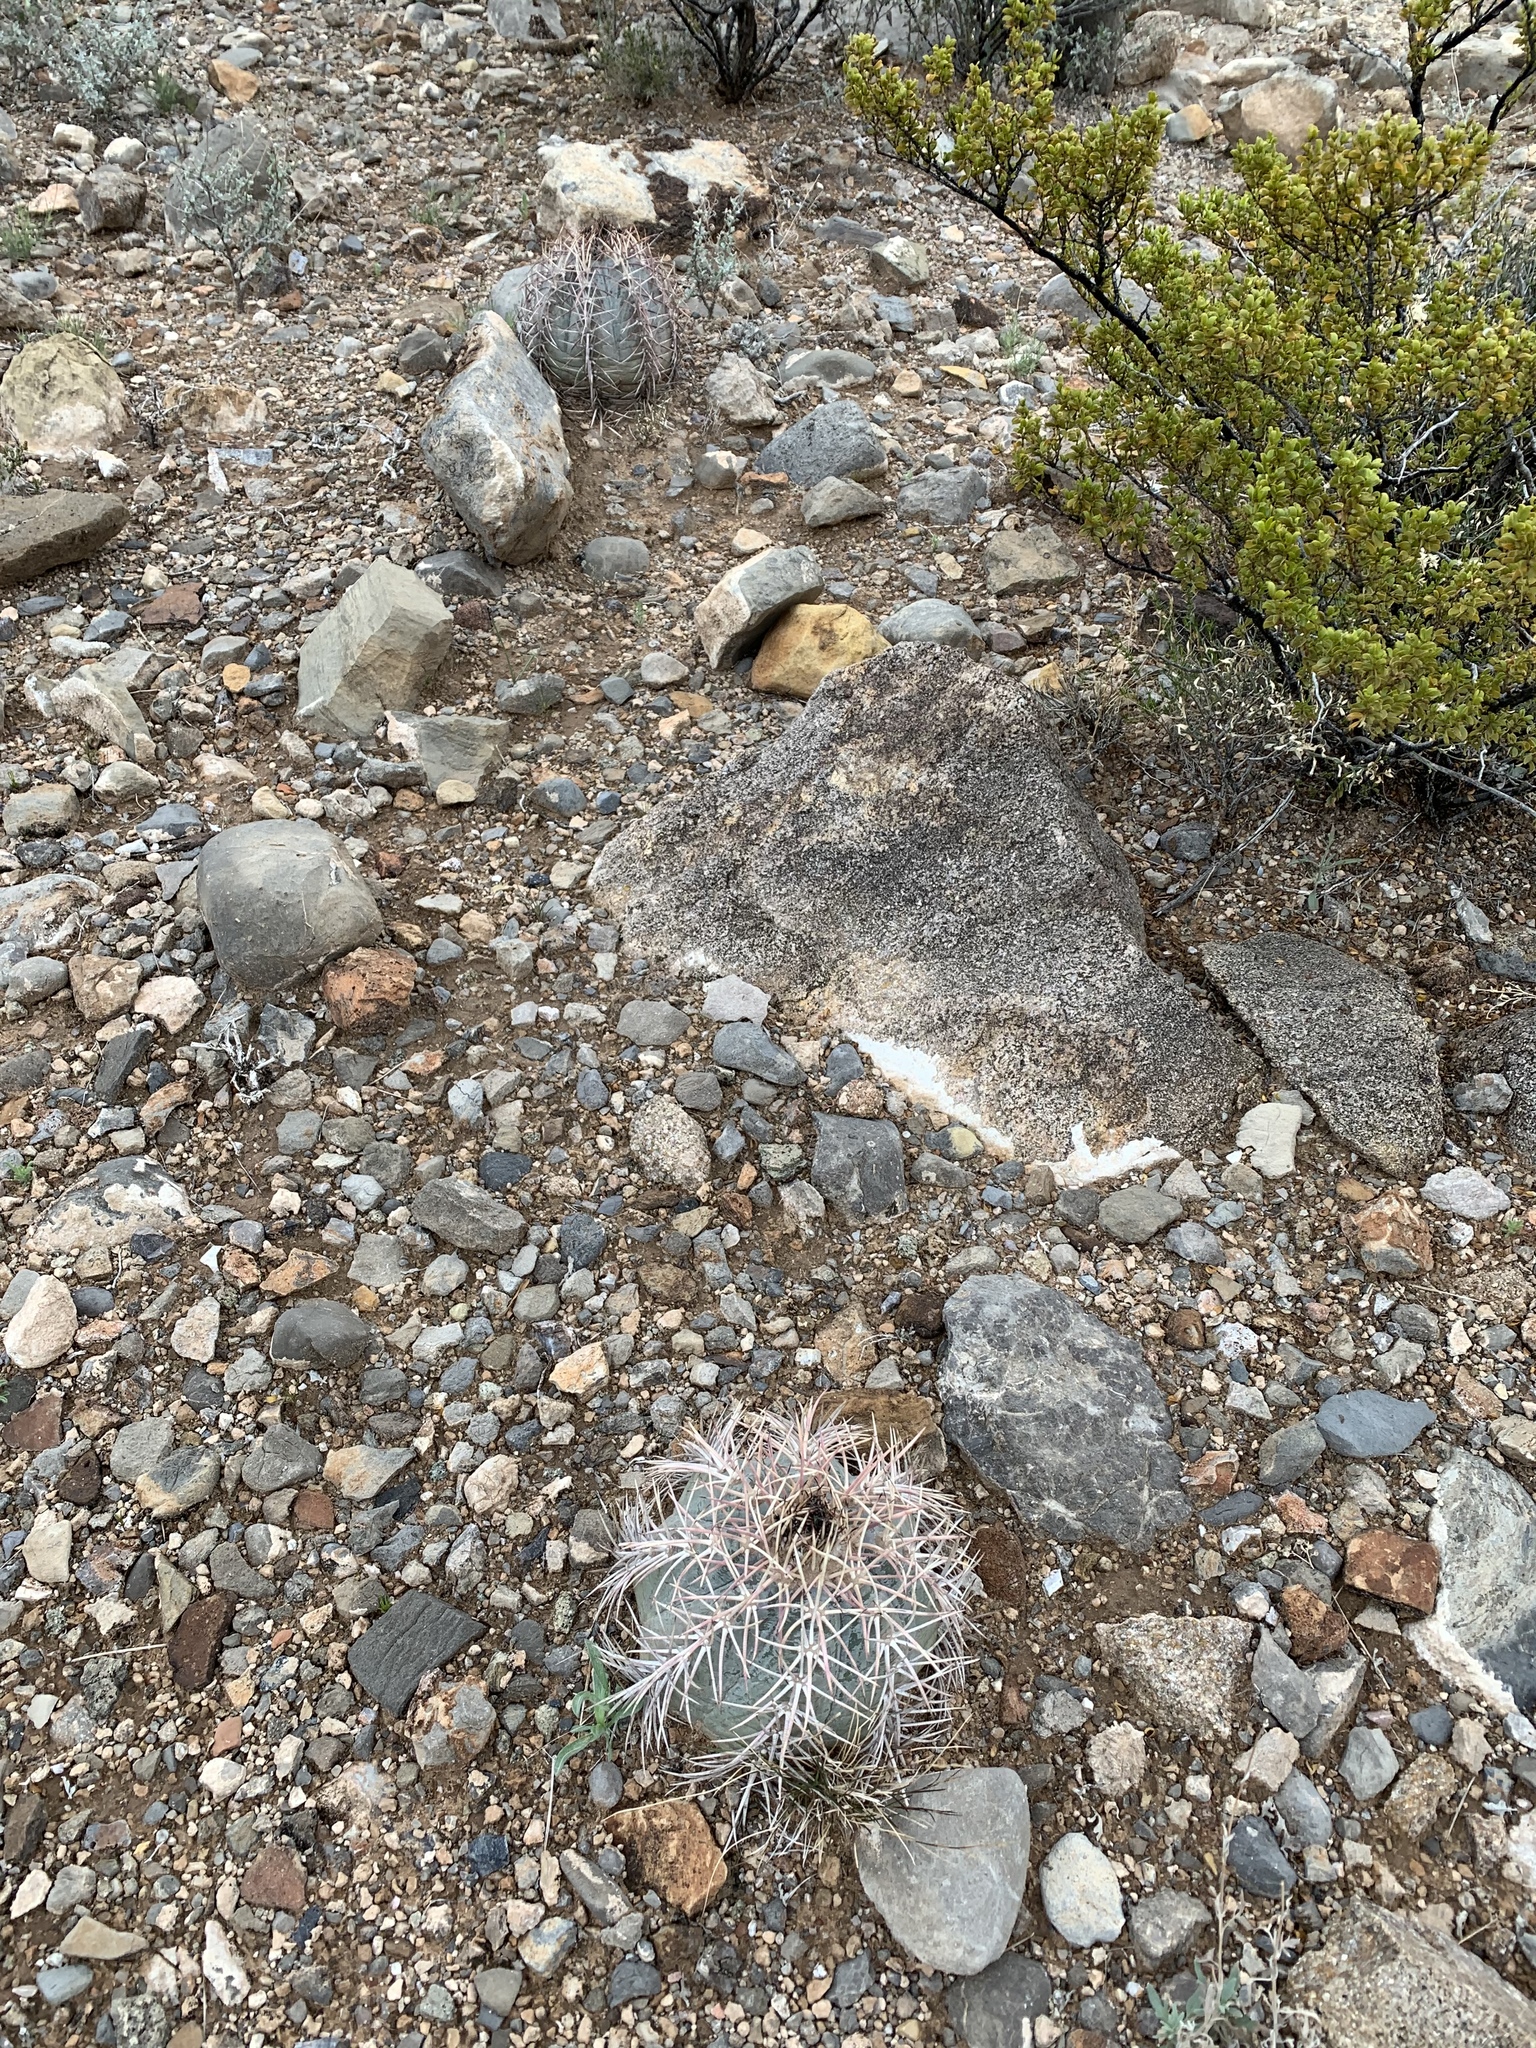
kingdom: Plantae
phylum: Tracheophyta
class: Magnoliopsida
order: Caryophyllales
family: Cactaceae
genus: Echinocactus
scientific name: Echinocactus horizonthalonius
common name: Devilshead
